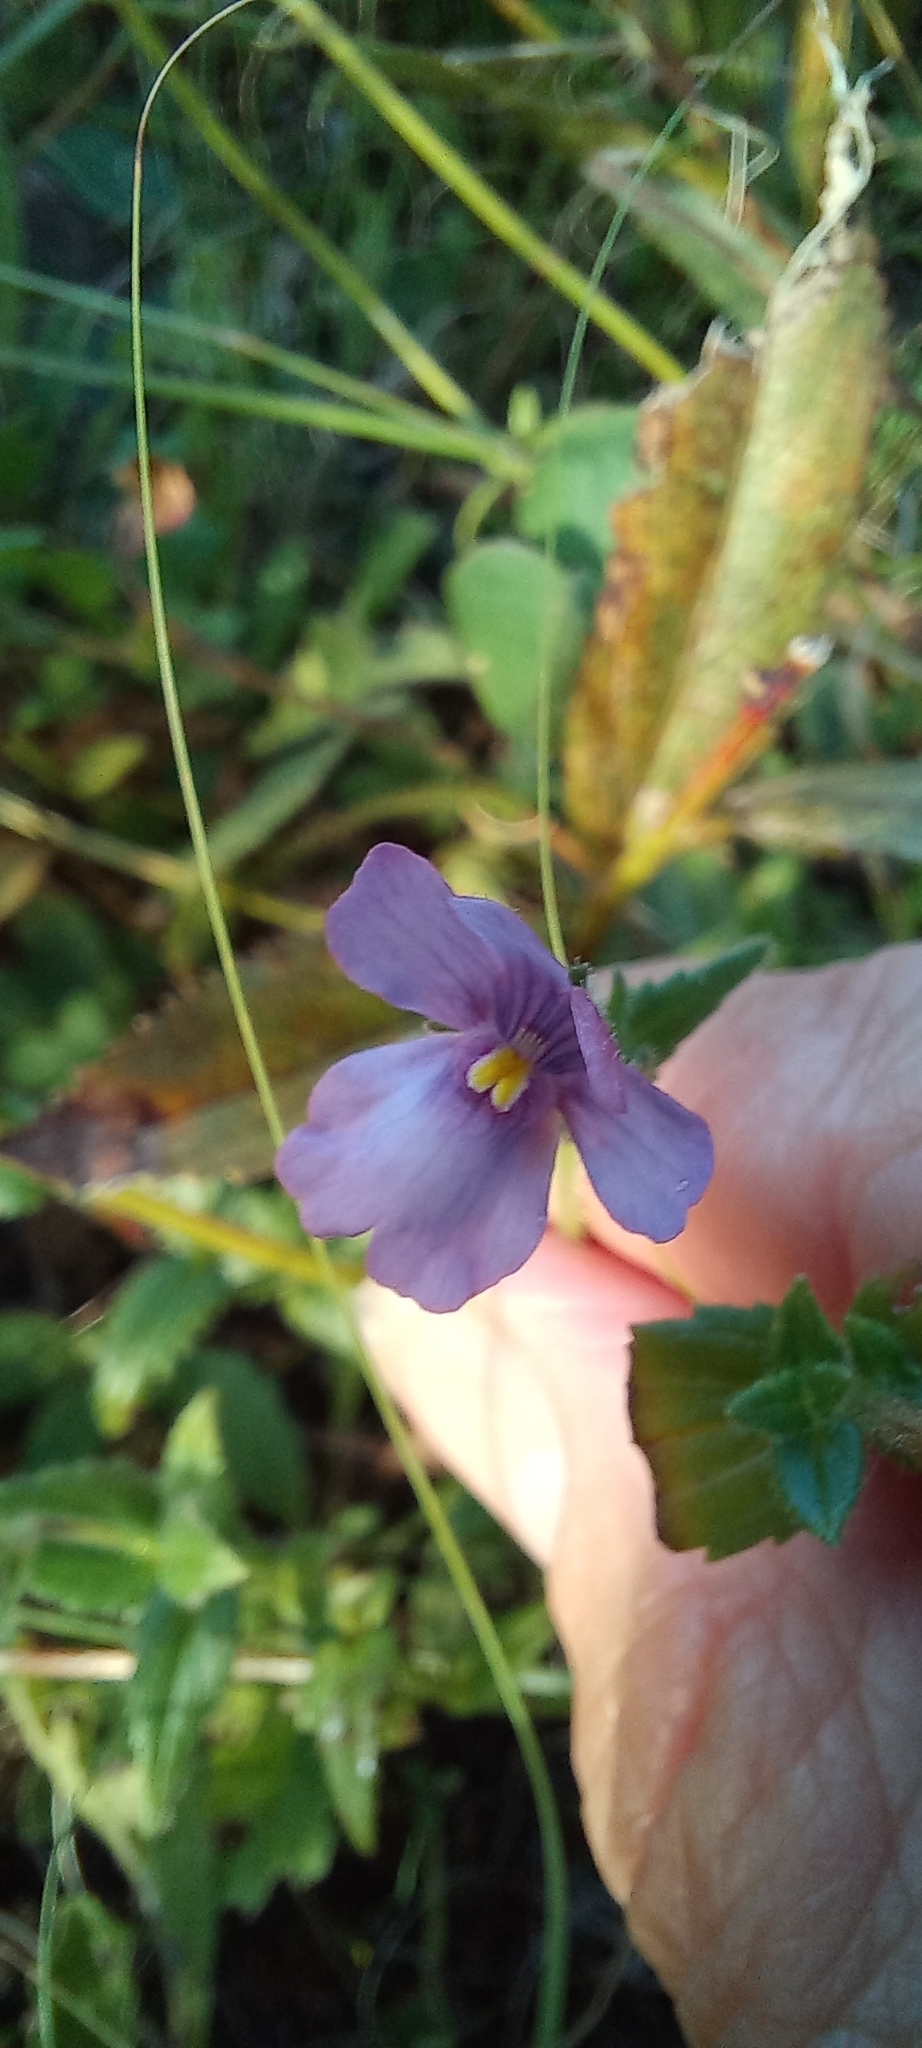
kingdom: Plantae
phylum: Tracheophyta
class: Magnoliopsida
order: Lamiales
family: Scrophulariaceae
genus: Nemesia
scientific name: Nemesia fruticans
